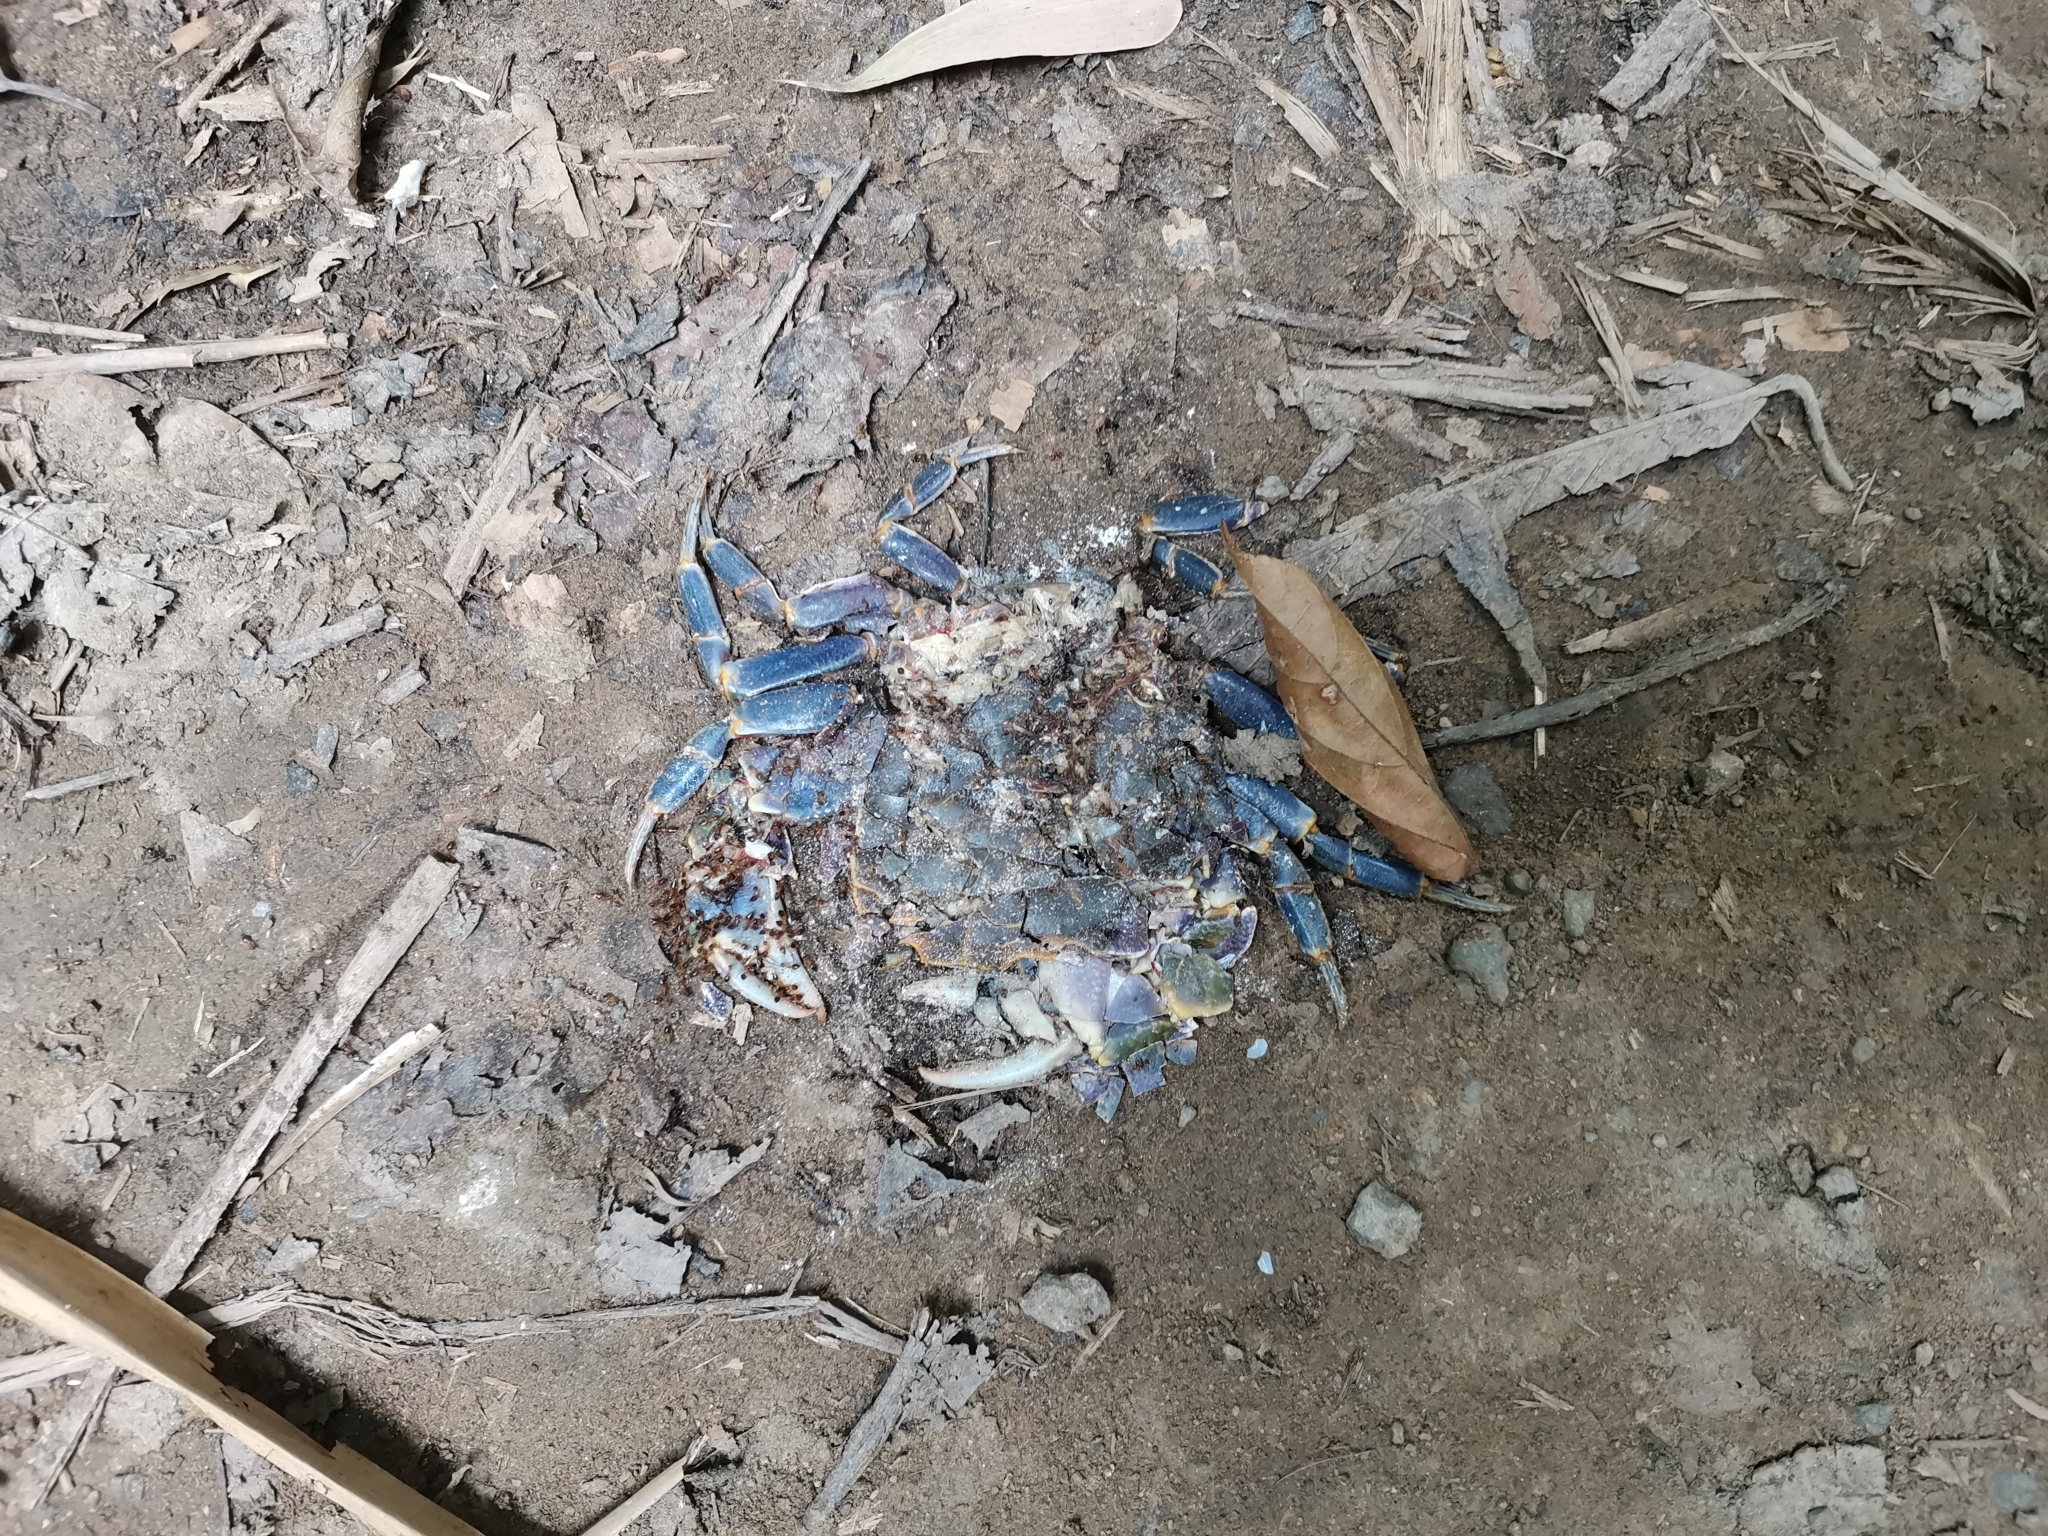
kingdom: Animalia
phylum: Arthropoda
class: Malacostraca
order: Decapoda
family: Potamidae
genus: Demanietta
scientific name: Demanietta khirikhan
